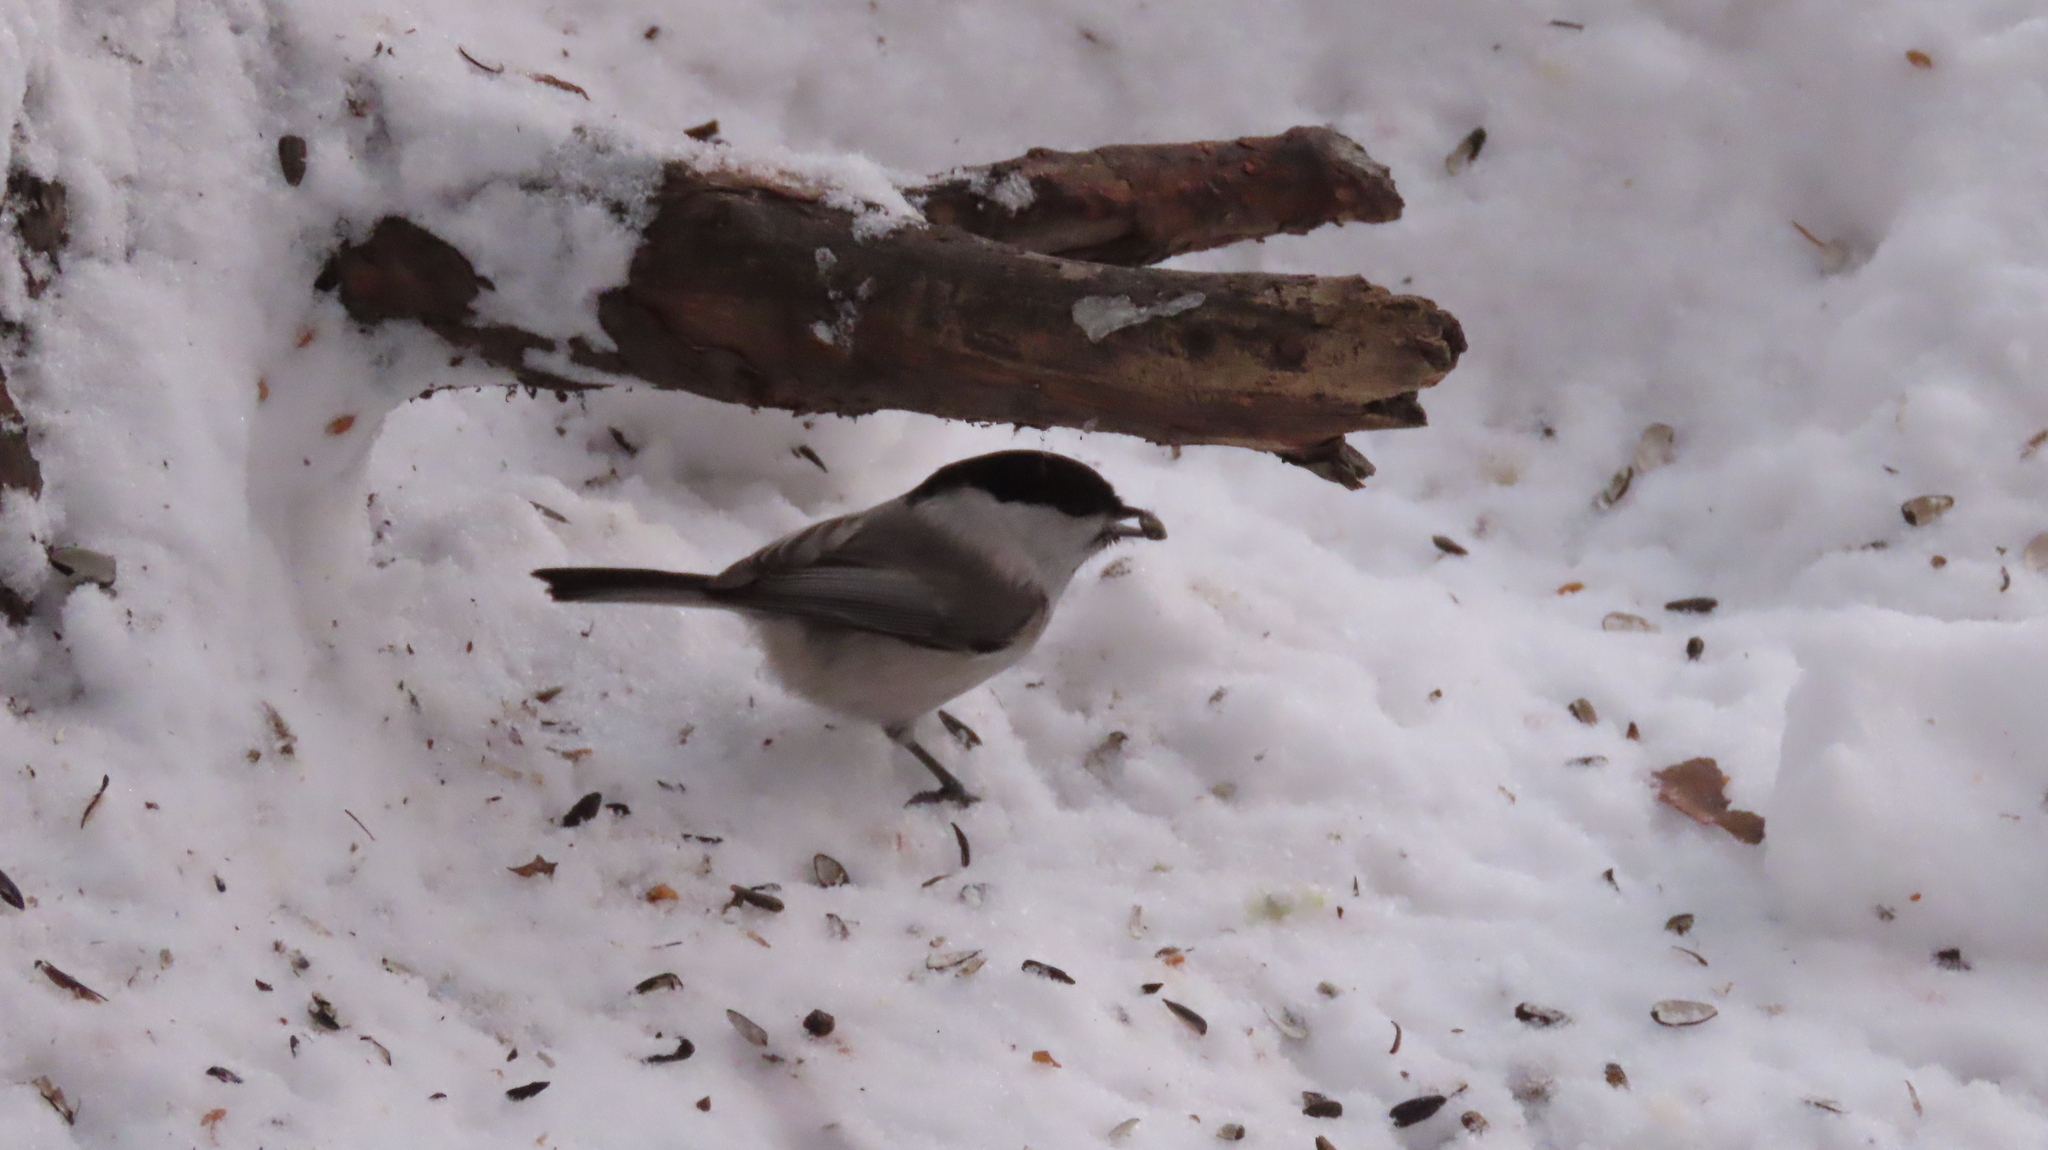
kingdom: Animalia
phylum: Chordata
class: Aves
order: Passeriformes
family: Paridae
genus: Poecile
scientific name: Poecile montanus
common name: Willow tit
